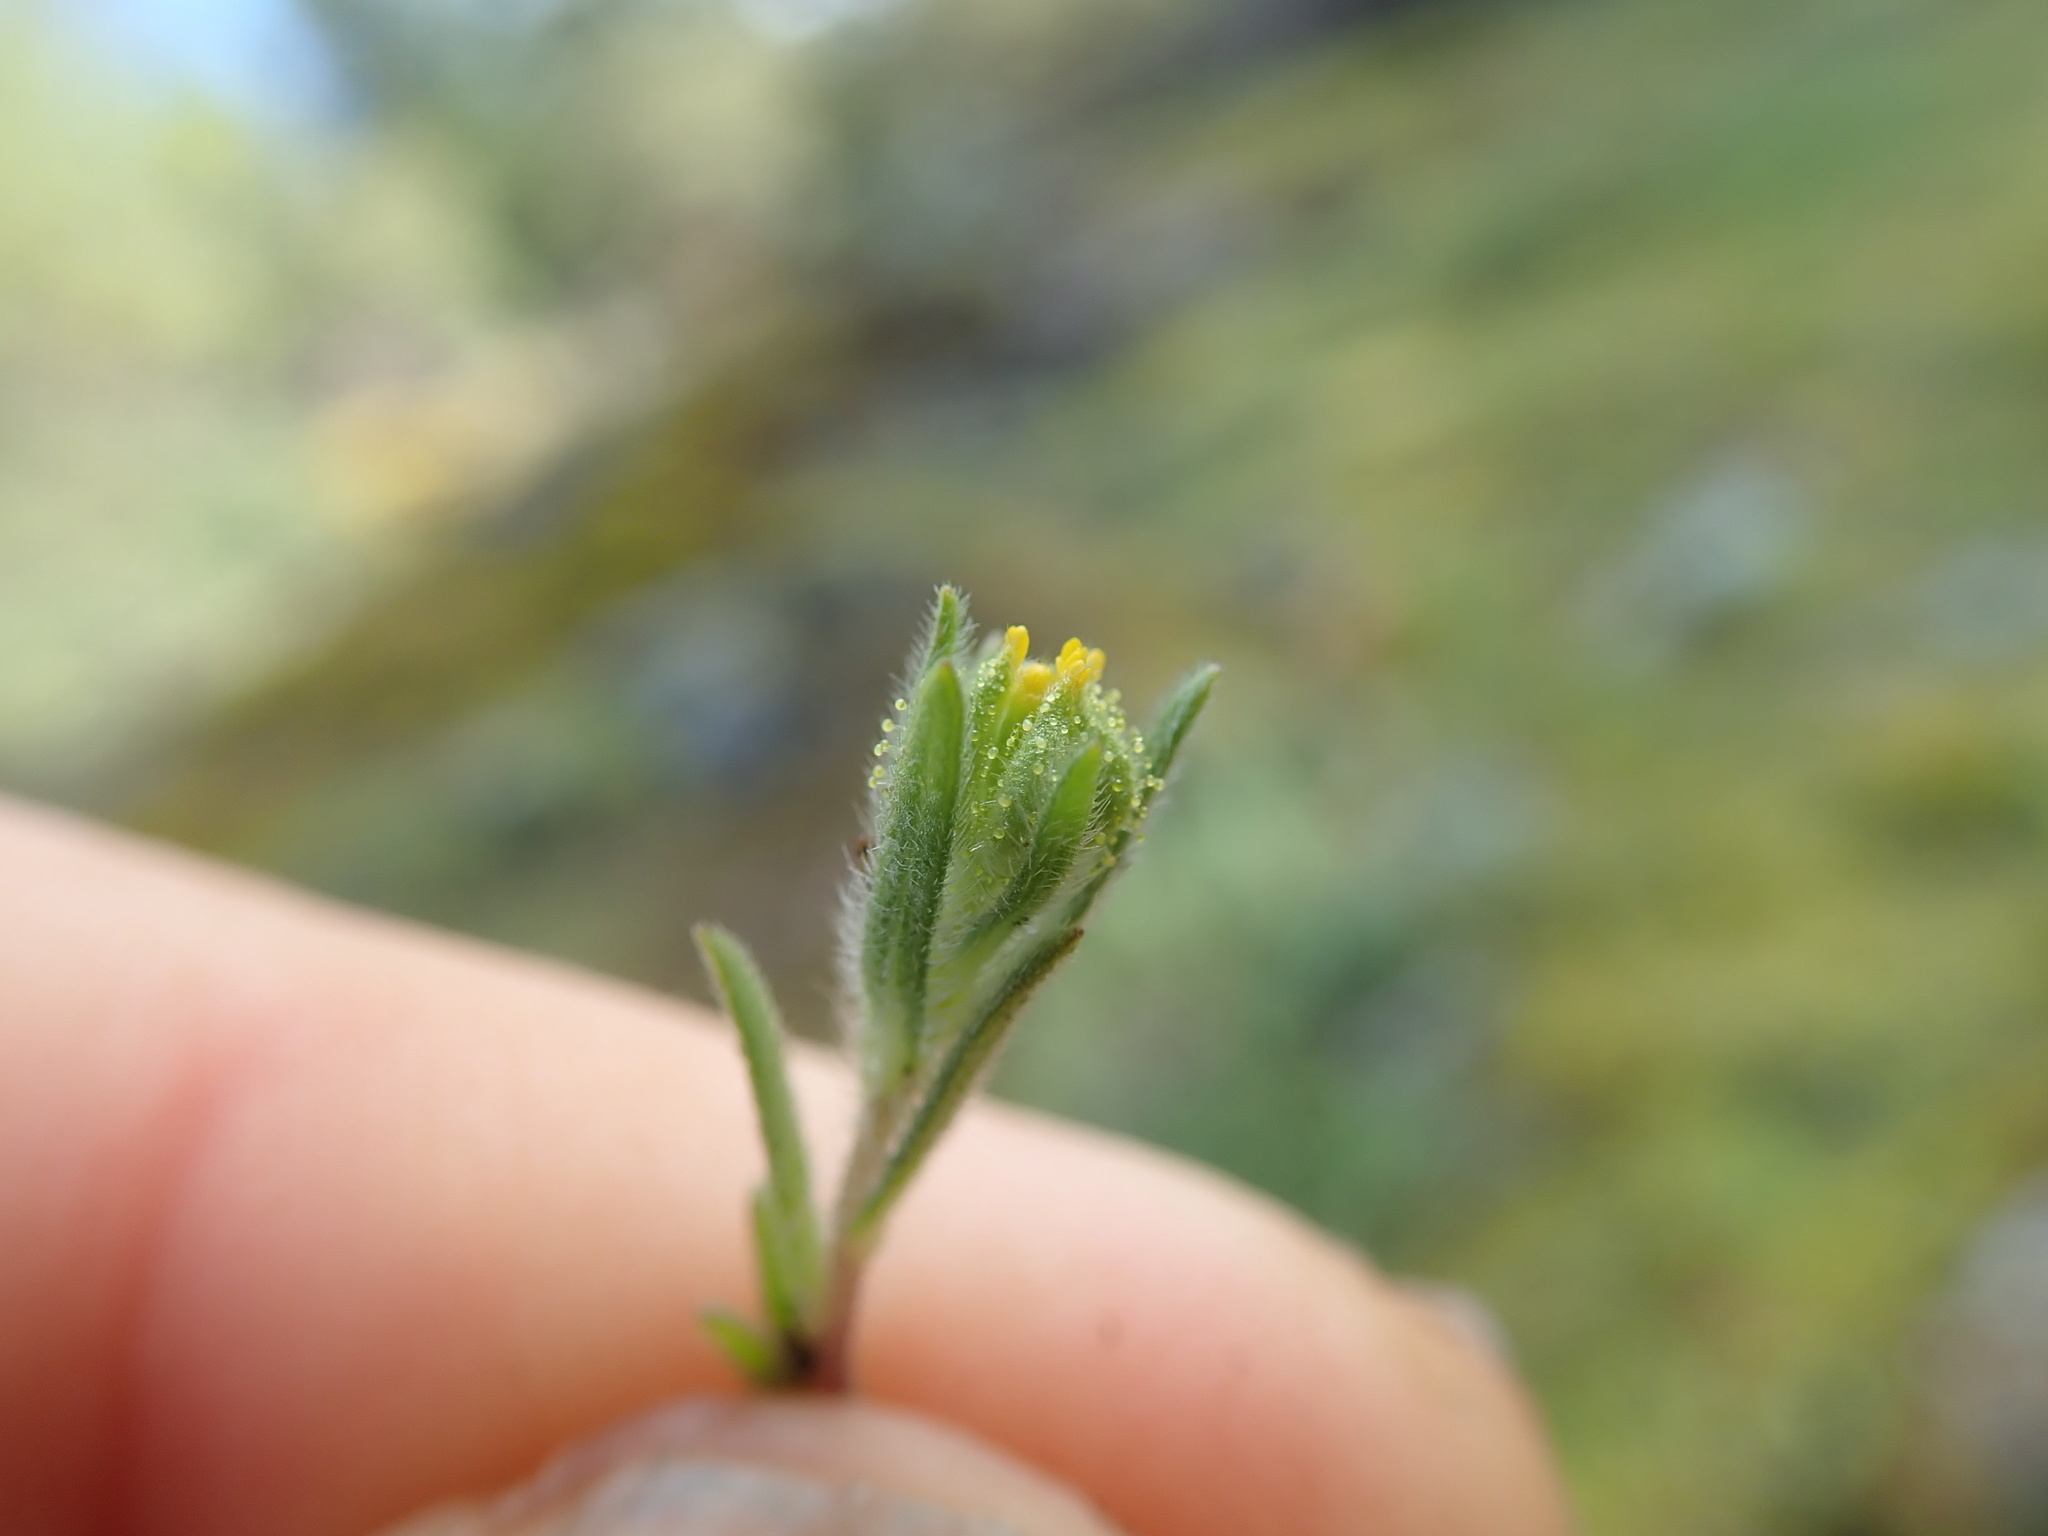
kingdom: Plantae
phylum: Tracheophyta
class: Magnoliopsida
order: Asterales
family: Asteraceae
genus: Madia
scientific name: Madia gracilis
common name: Grassy tarweed
